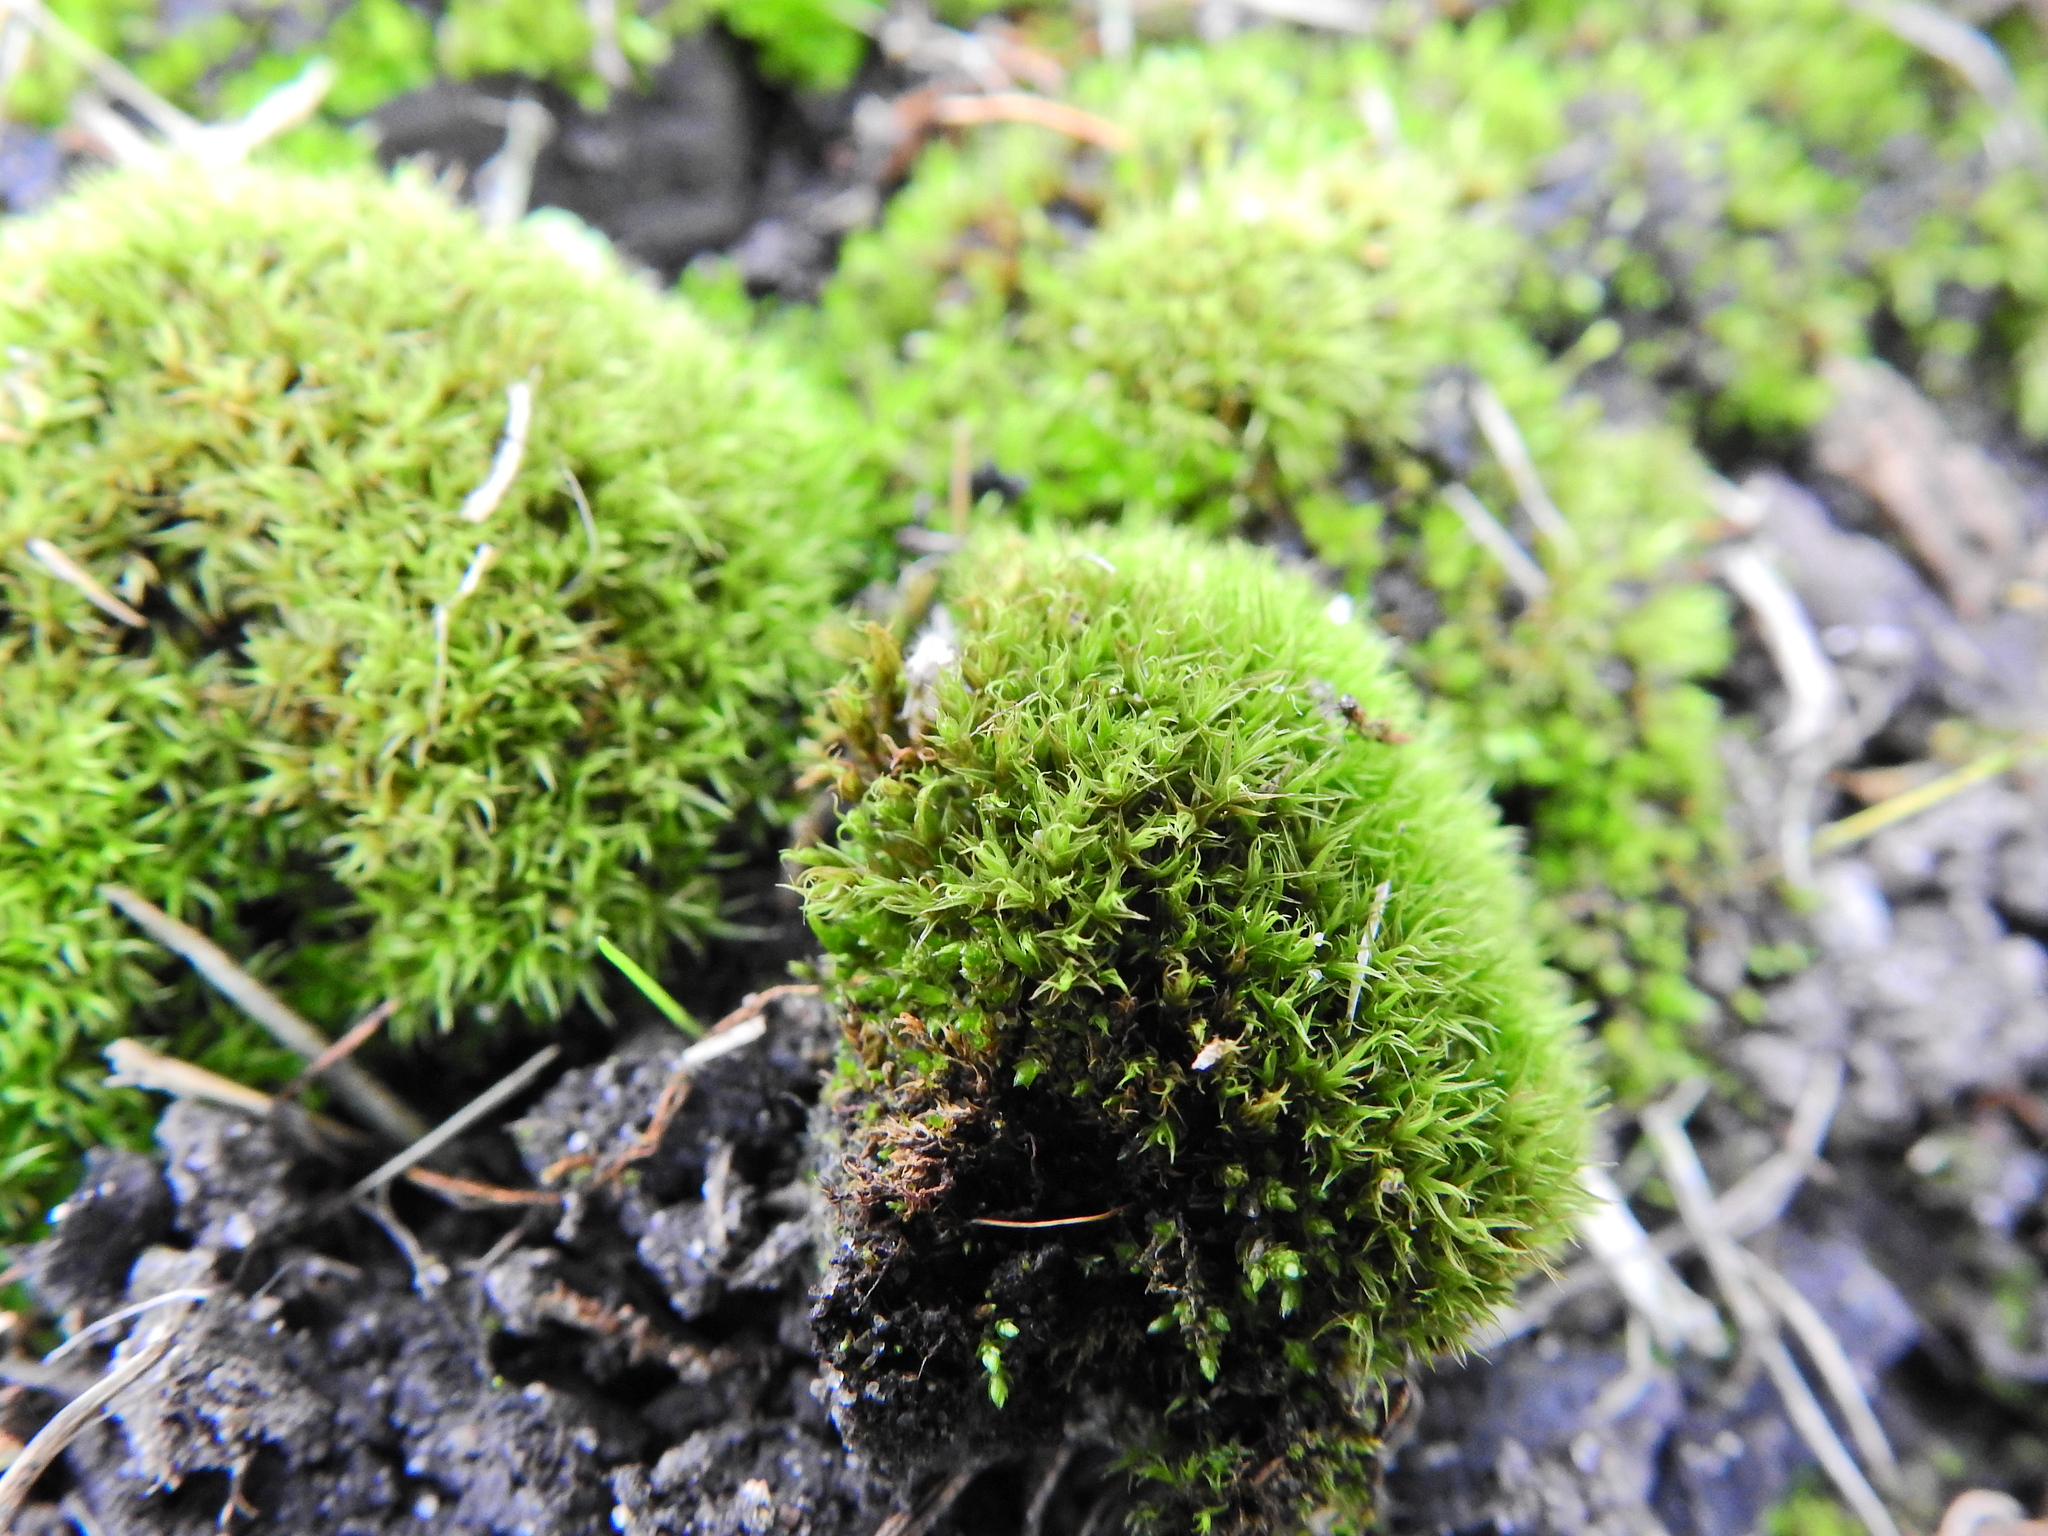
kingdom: Plantae
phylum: Bryophyta
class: Bryopsida
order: Pottiales
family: Pottiaceae
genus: Vinealobryum
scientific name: Vinealobryum insulanum
